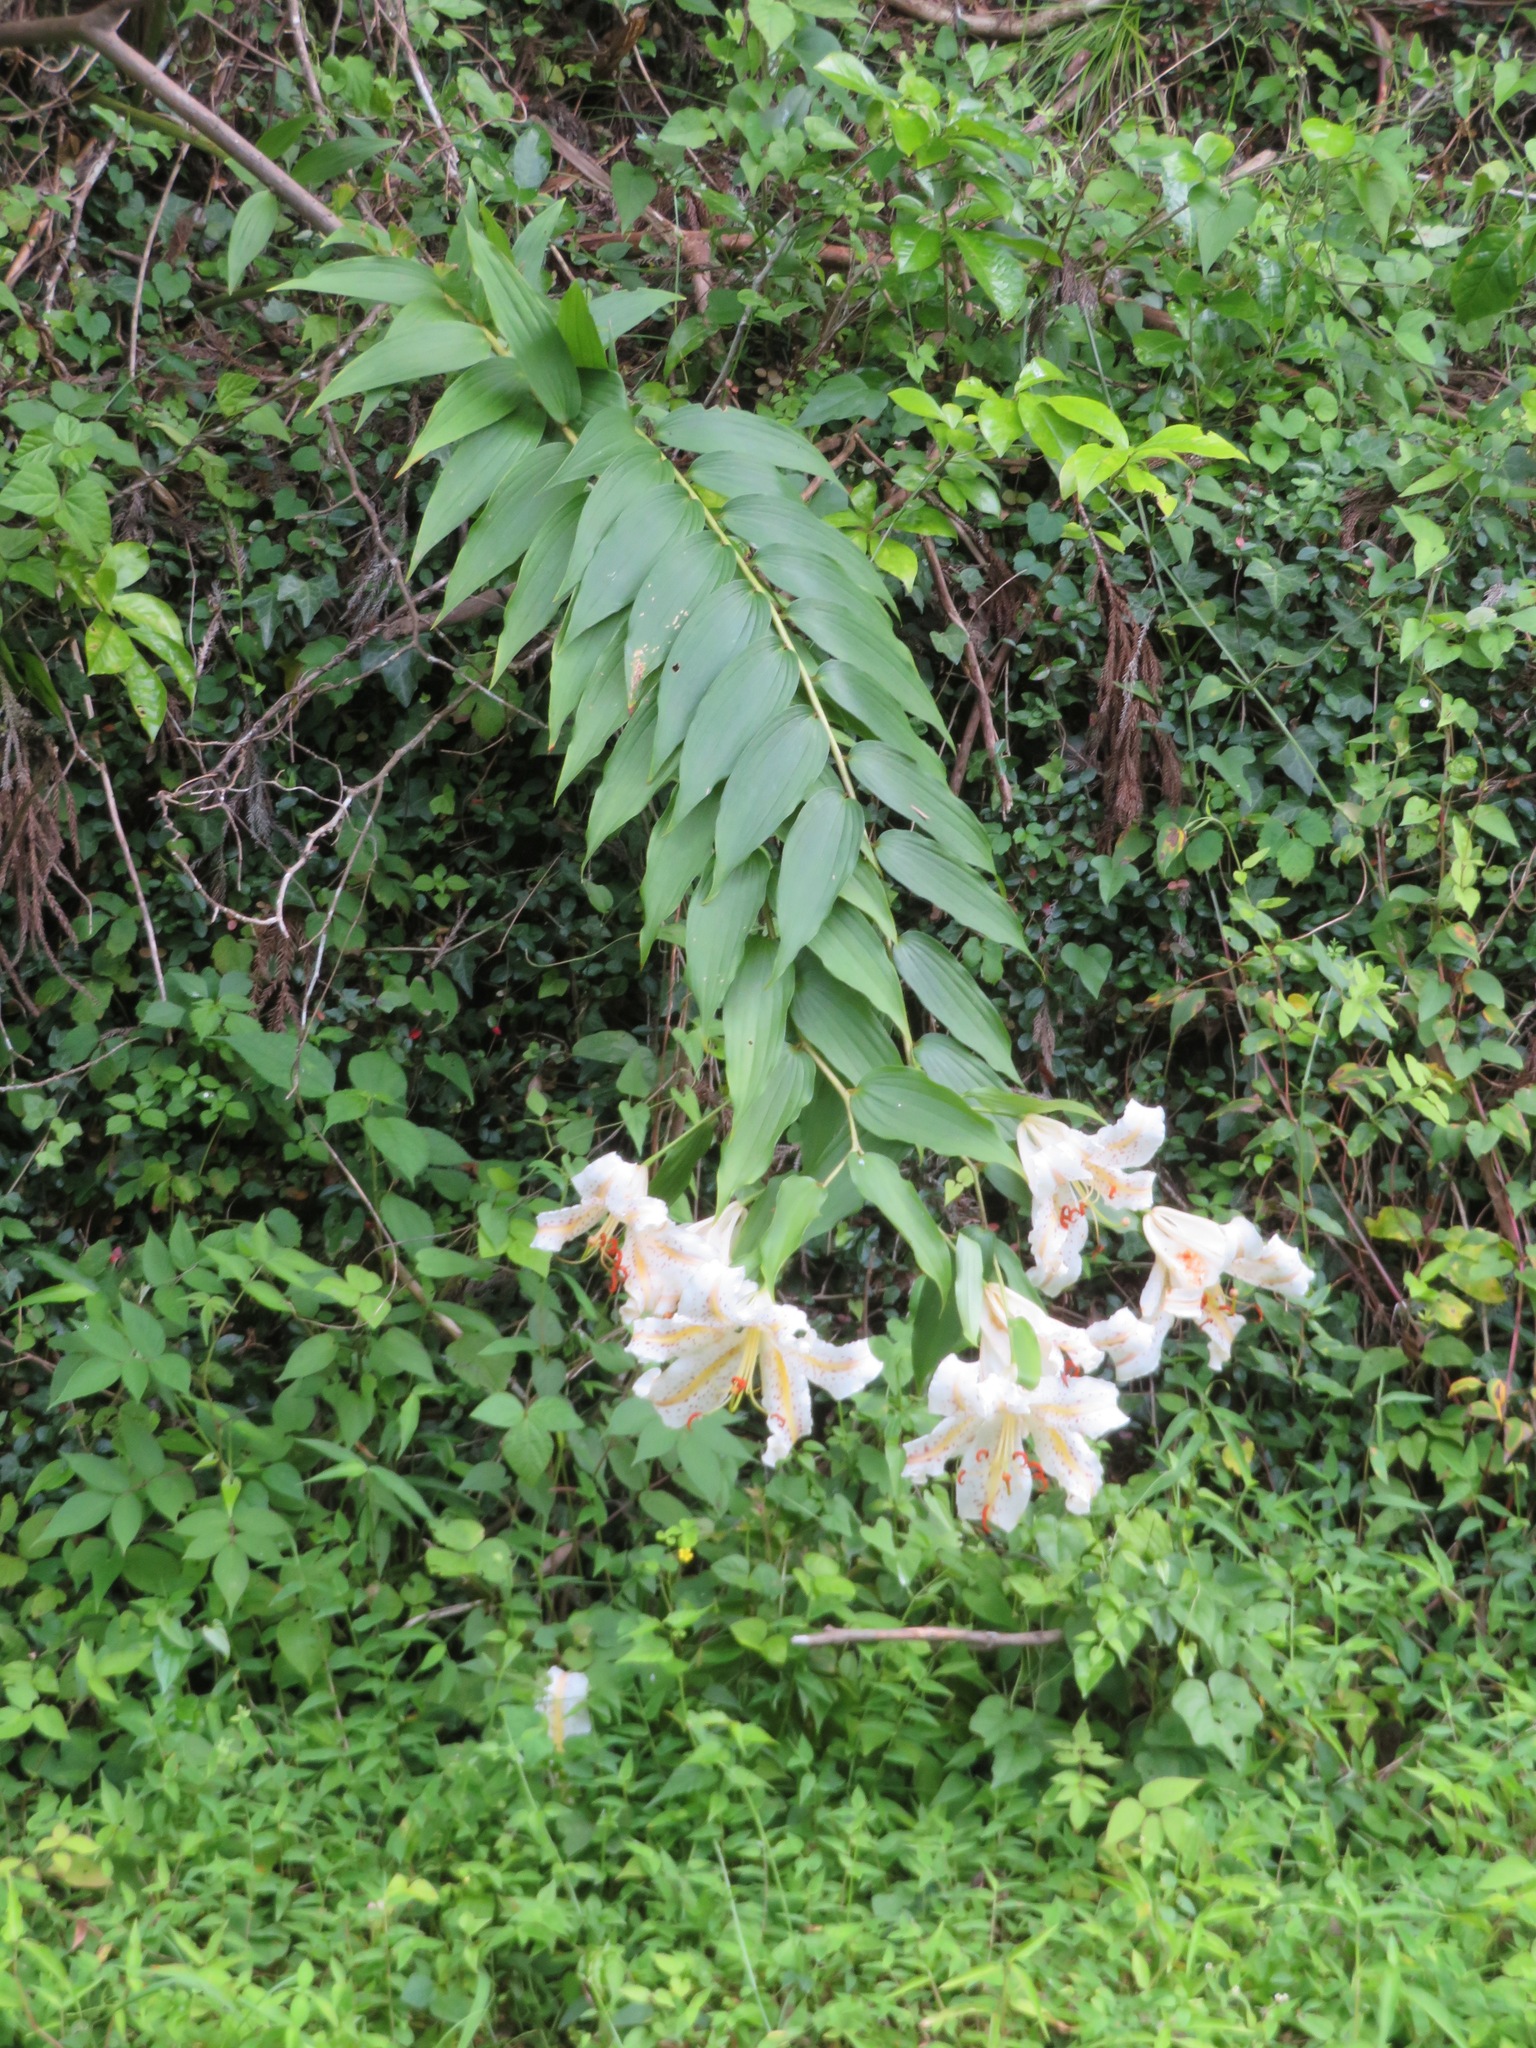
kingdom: Plantae
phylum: Tracheophyta
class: Liliopsida
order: Liliales
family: Liliaceae
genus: Lilium
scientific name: Lilium auratum
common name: Golden-ray lily
